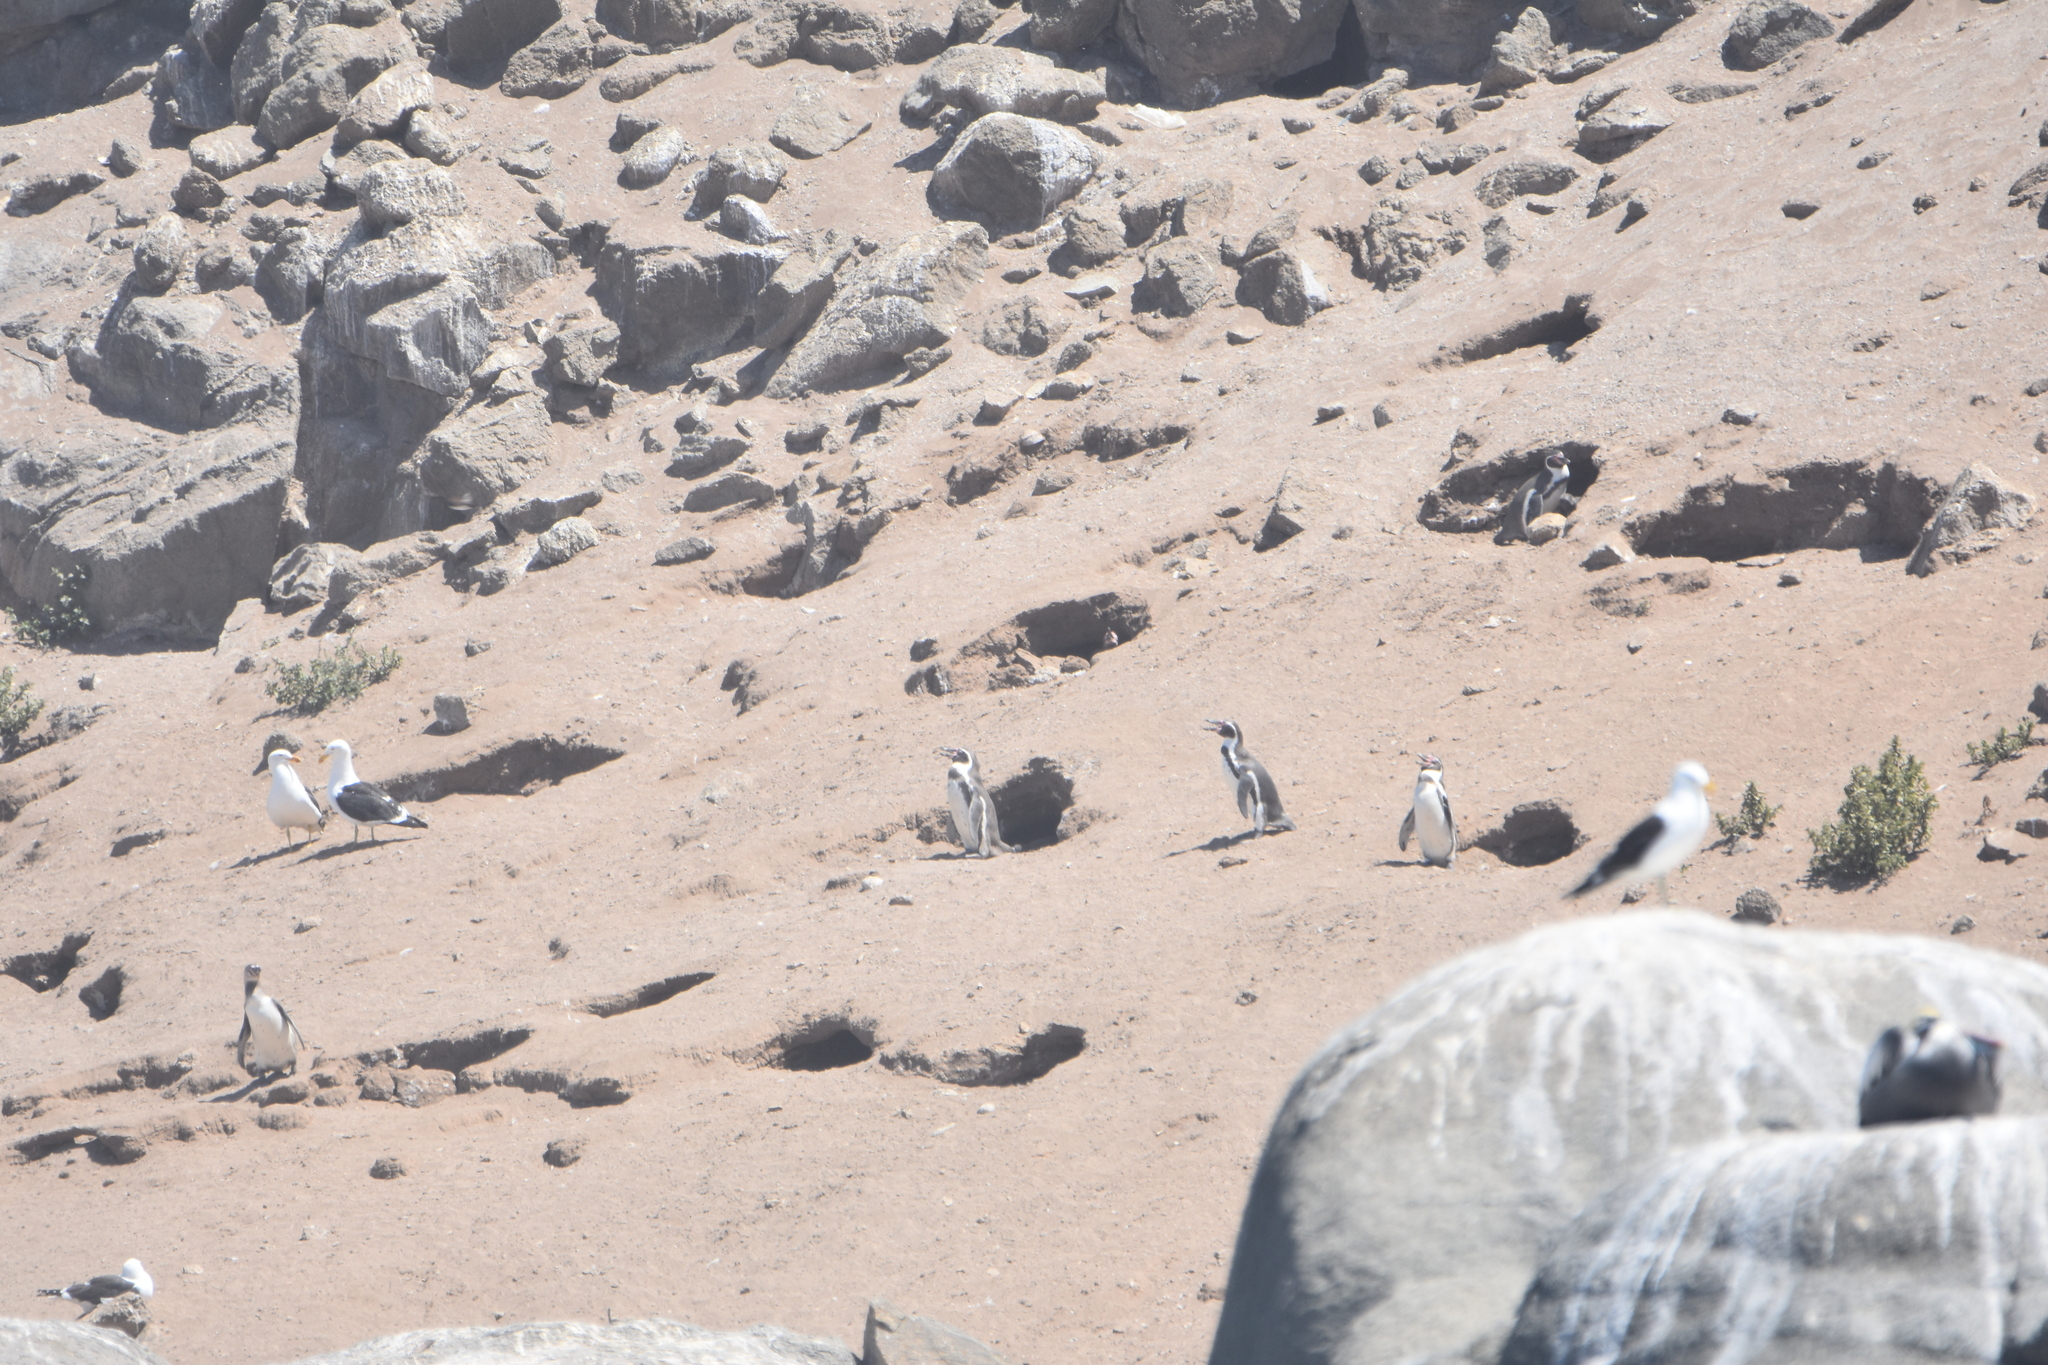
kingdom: Animalia
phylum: Chordata
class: Aves
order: Sphenisciformes
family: Spheniscidae
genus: Spheniscus
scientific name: Spheniscus humboldti
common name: Humboldt penguin
